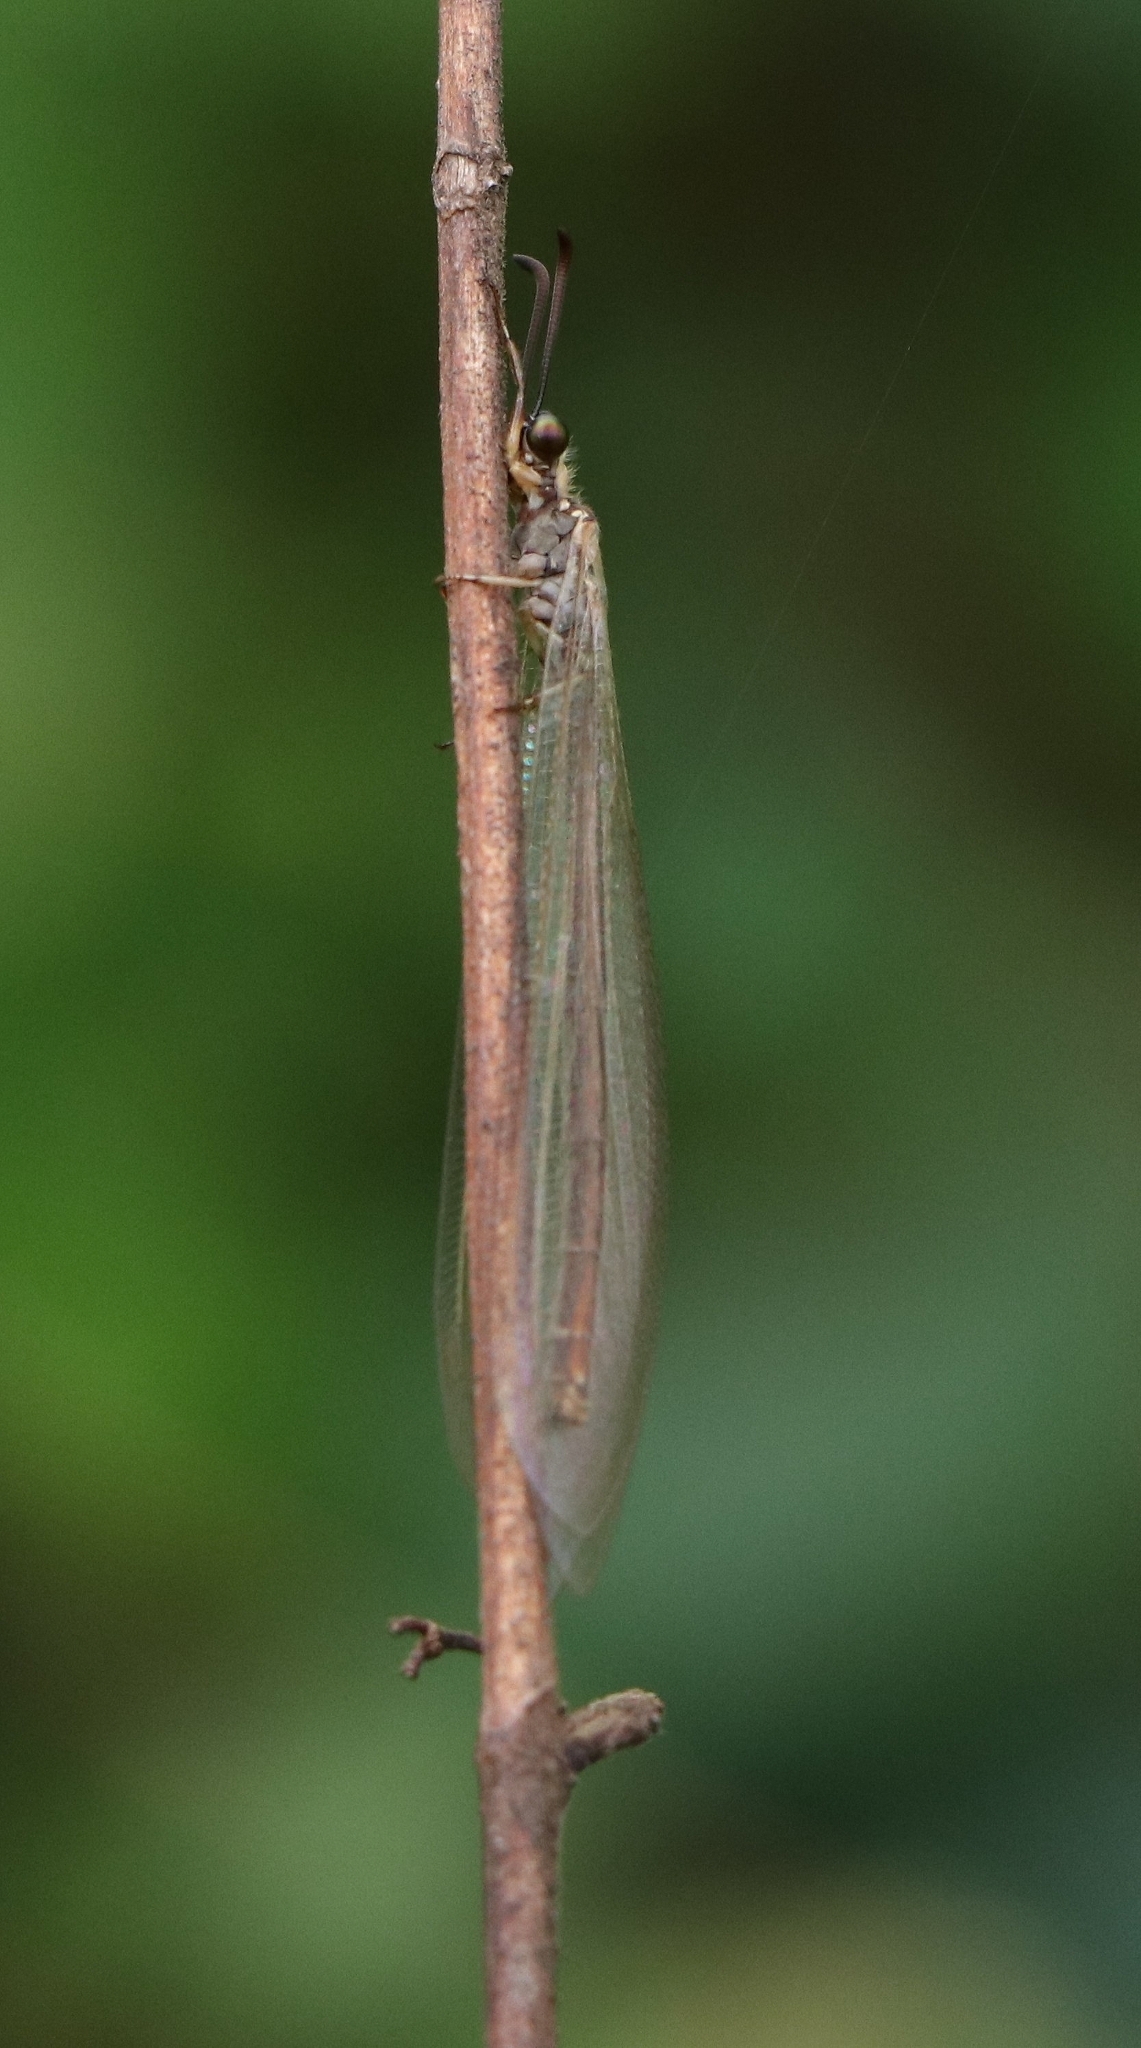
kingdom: Animalia
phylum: Arthropoda
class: Insecta
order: Neuroptera
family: Myrmeleontidae
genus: Myrmeleon
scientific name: Myrmeleon tenuipennis
